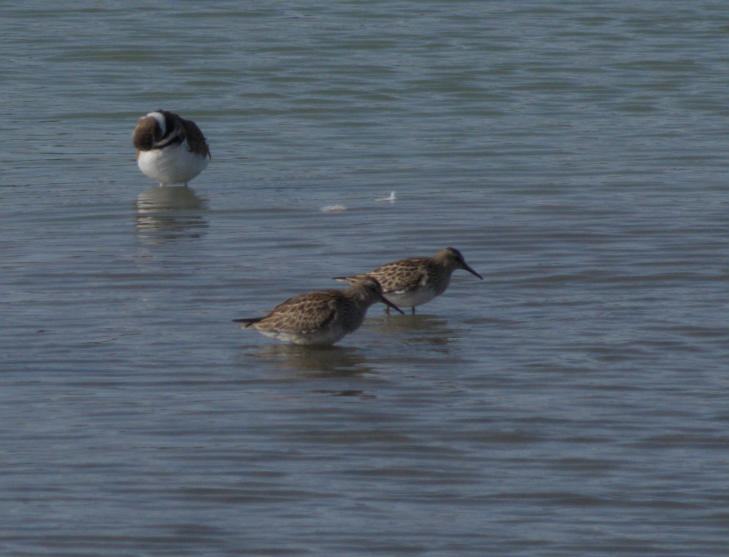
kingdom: Animalia
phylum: Chordata
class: Aves
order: Charadriiformes
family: Scolopacidae
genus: Calidris
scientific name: Calidris melanotos
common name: Pectoral sandpiper
